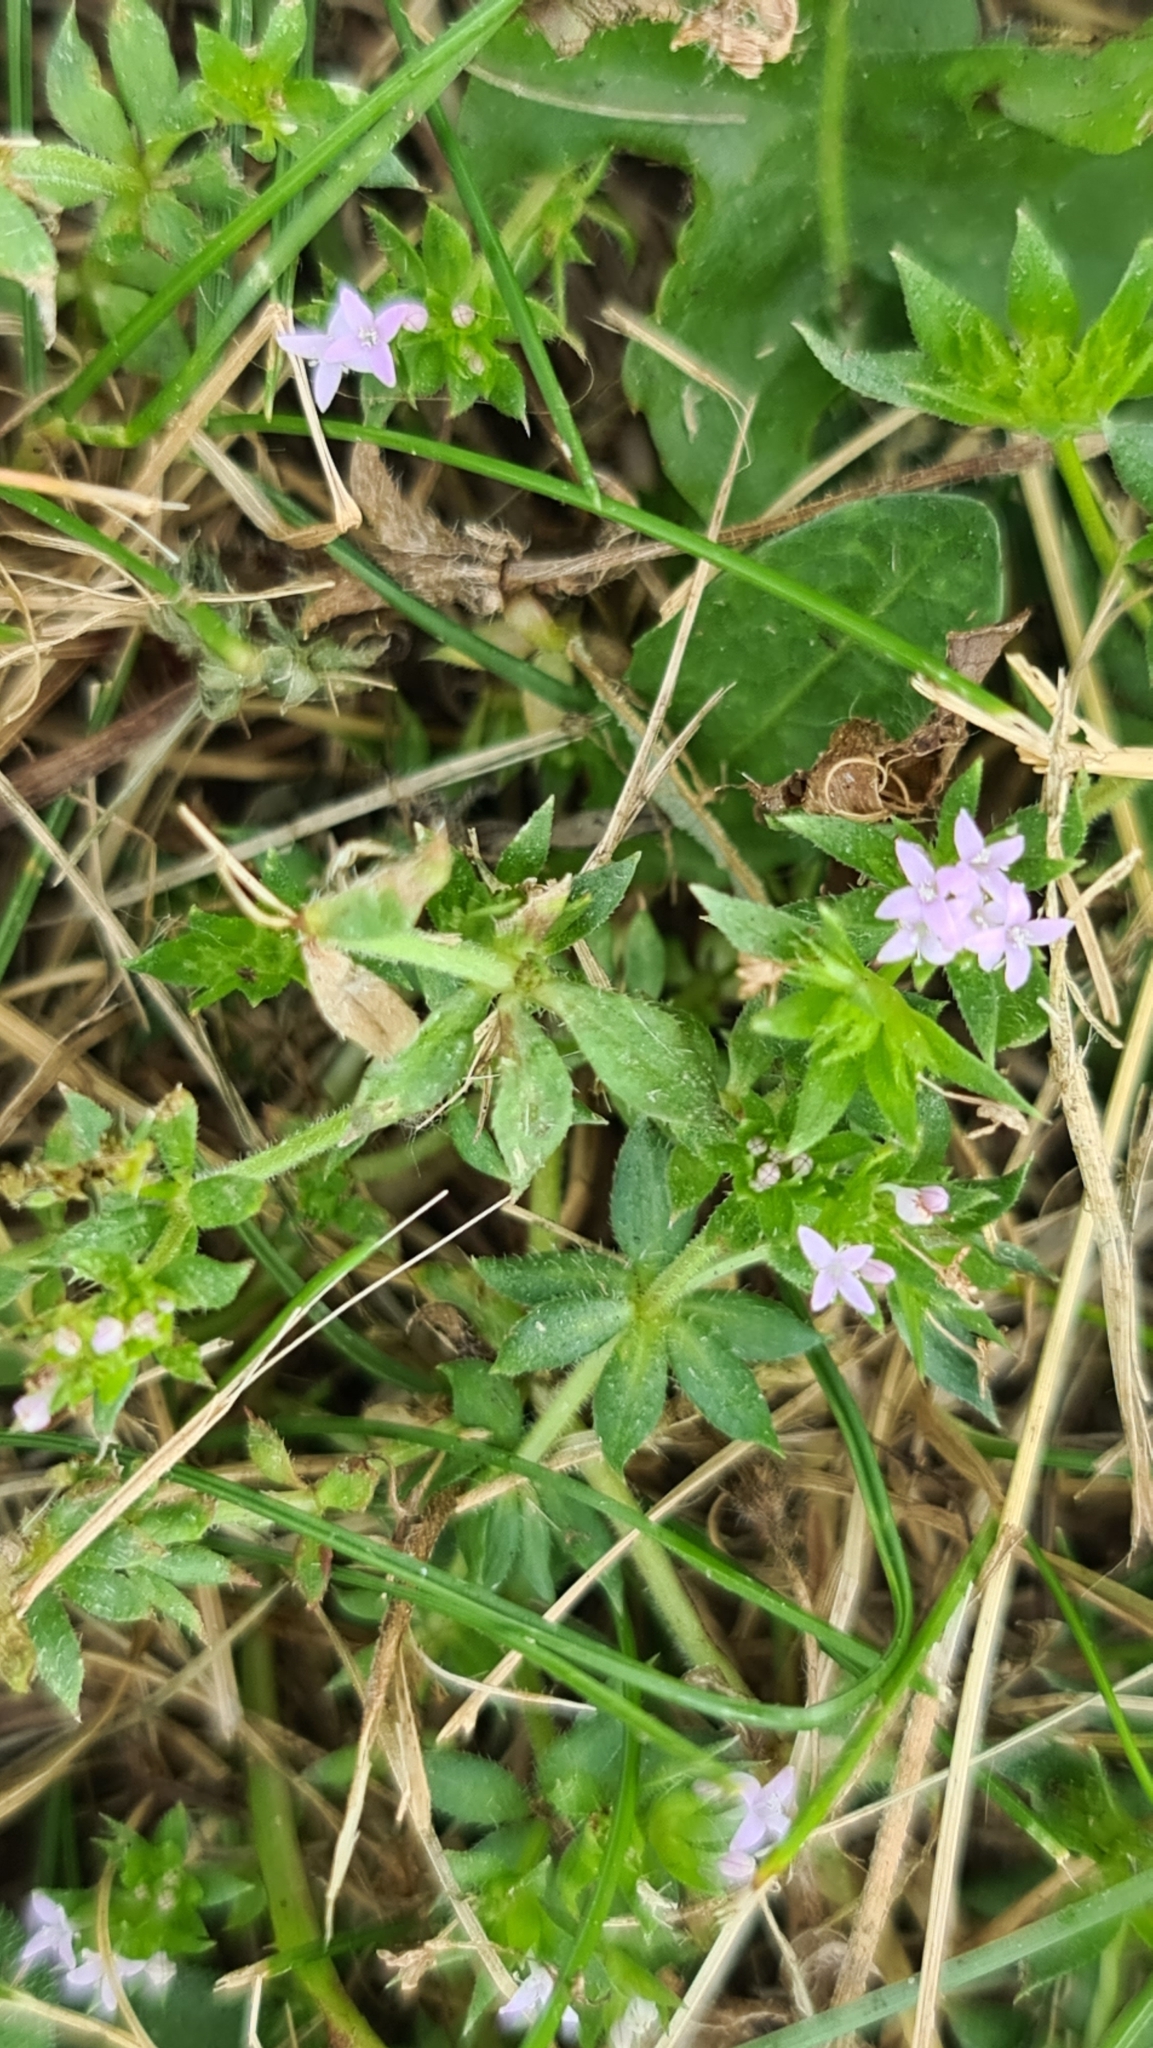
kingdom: Plantae
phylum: Tracheophyta
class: Magnoliopsida
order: Gentianales
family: Rubiaceae
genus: Sherardia
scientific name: Sherardia arvensis
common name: Field madder
